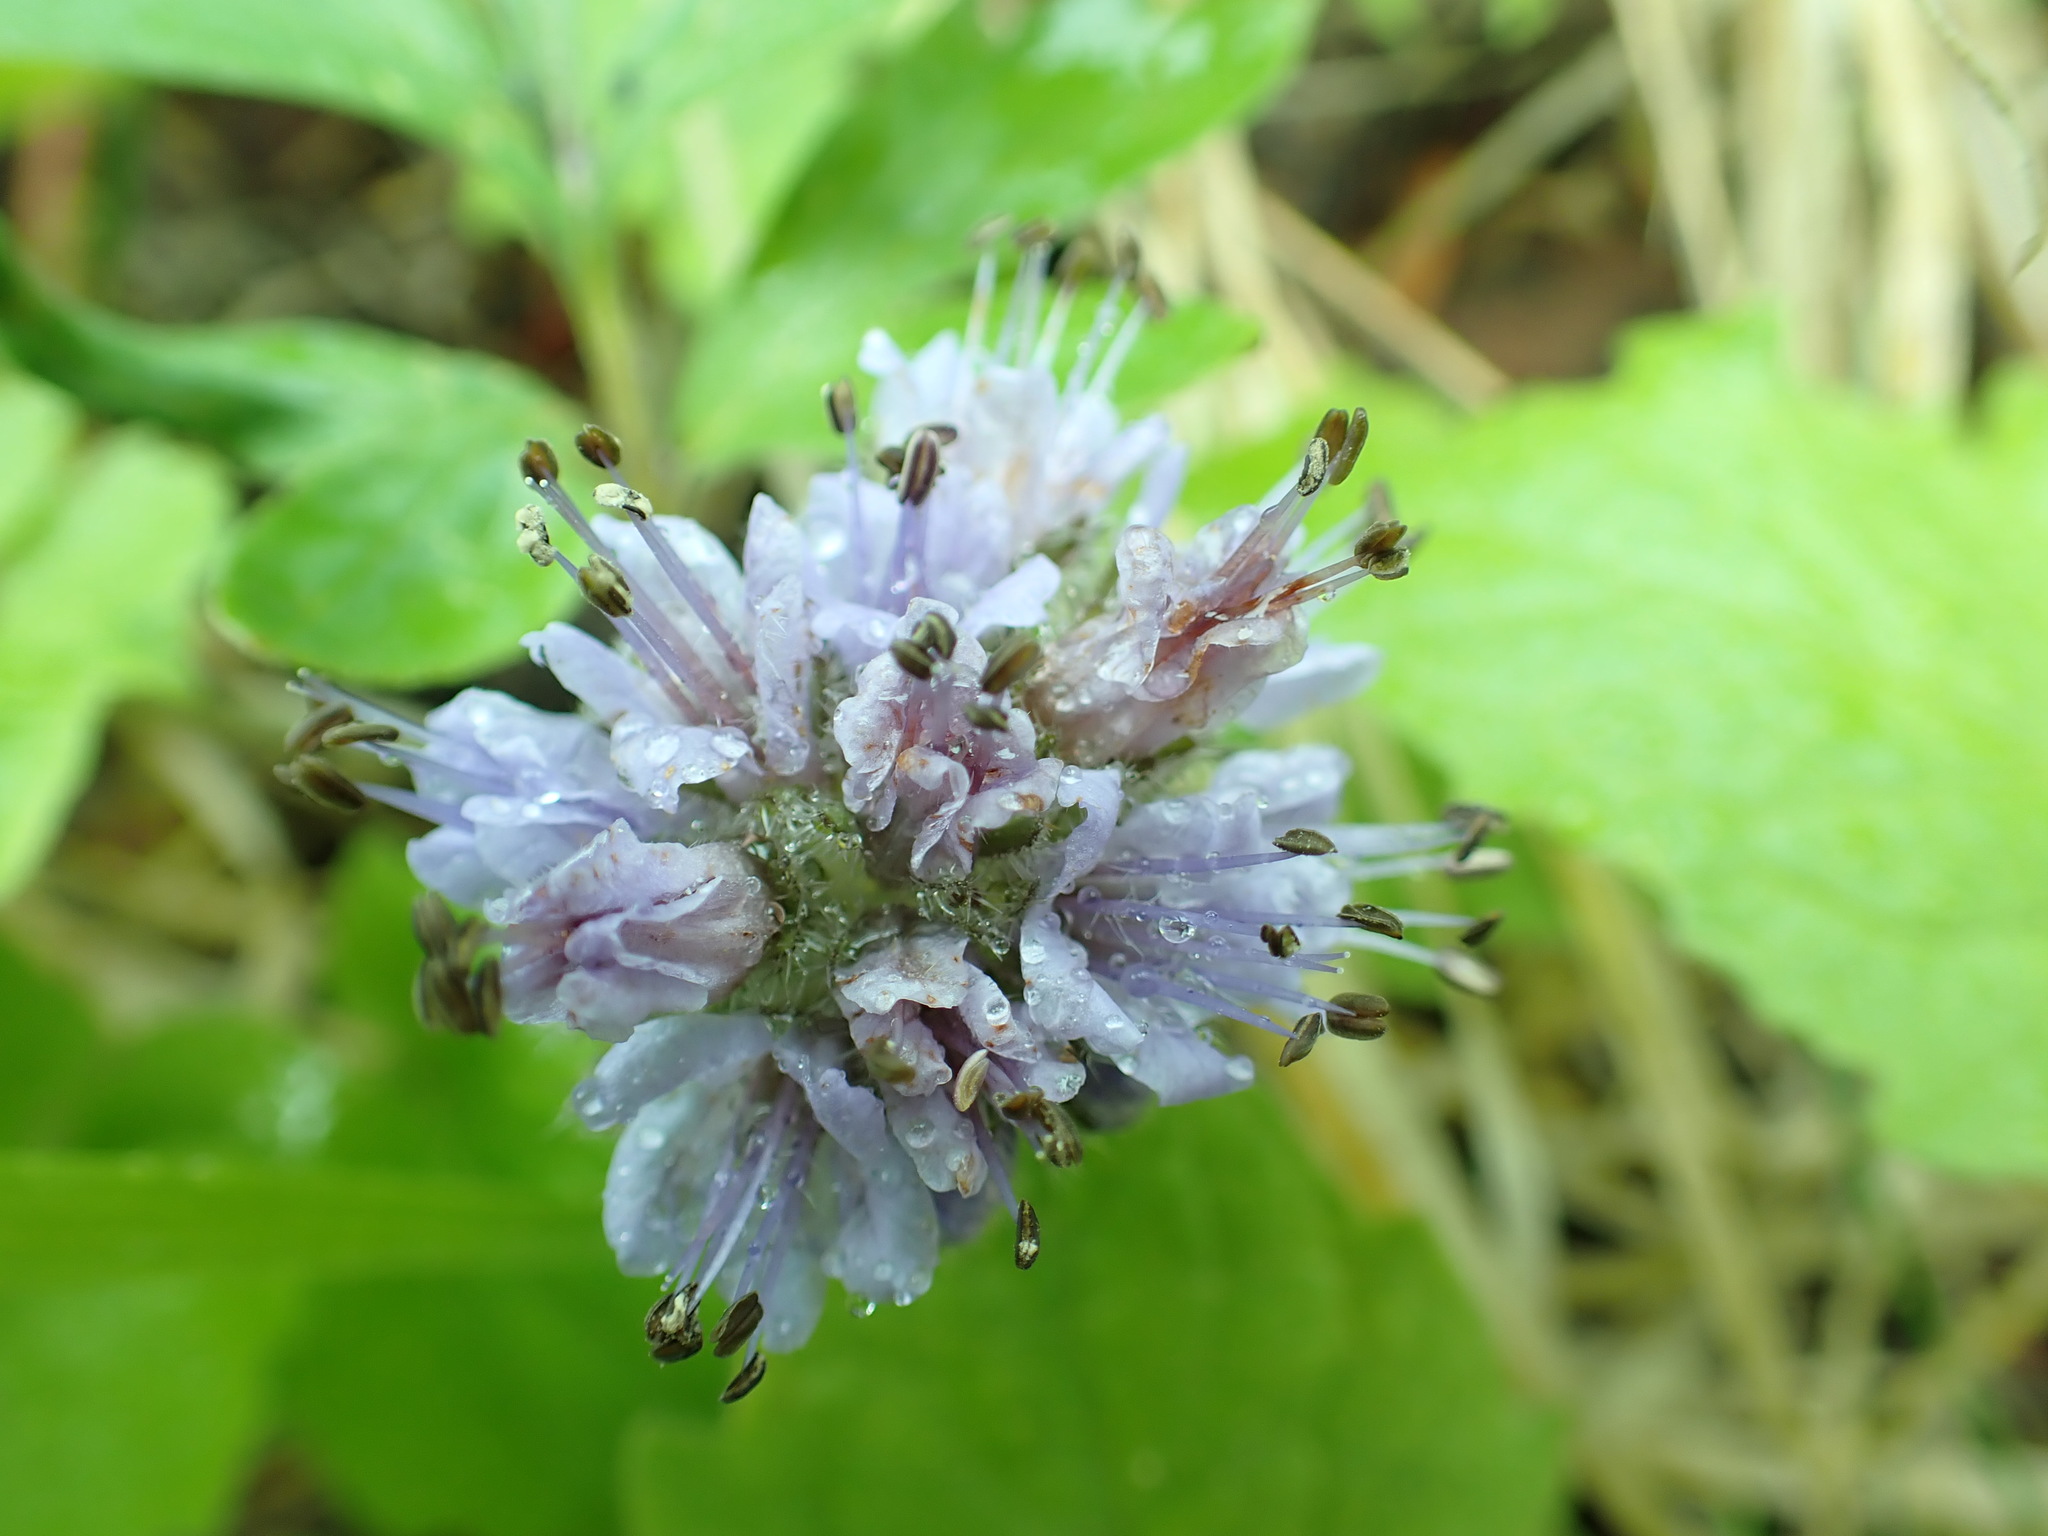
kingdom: Plantae
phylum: Tracheophyta
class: Magnoliopsida
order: Boraginales
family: Hydrophyllaceae
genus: Hydrophyllum
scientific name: Hydrophyllum capitatum
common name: Woollen-breeches
